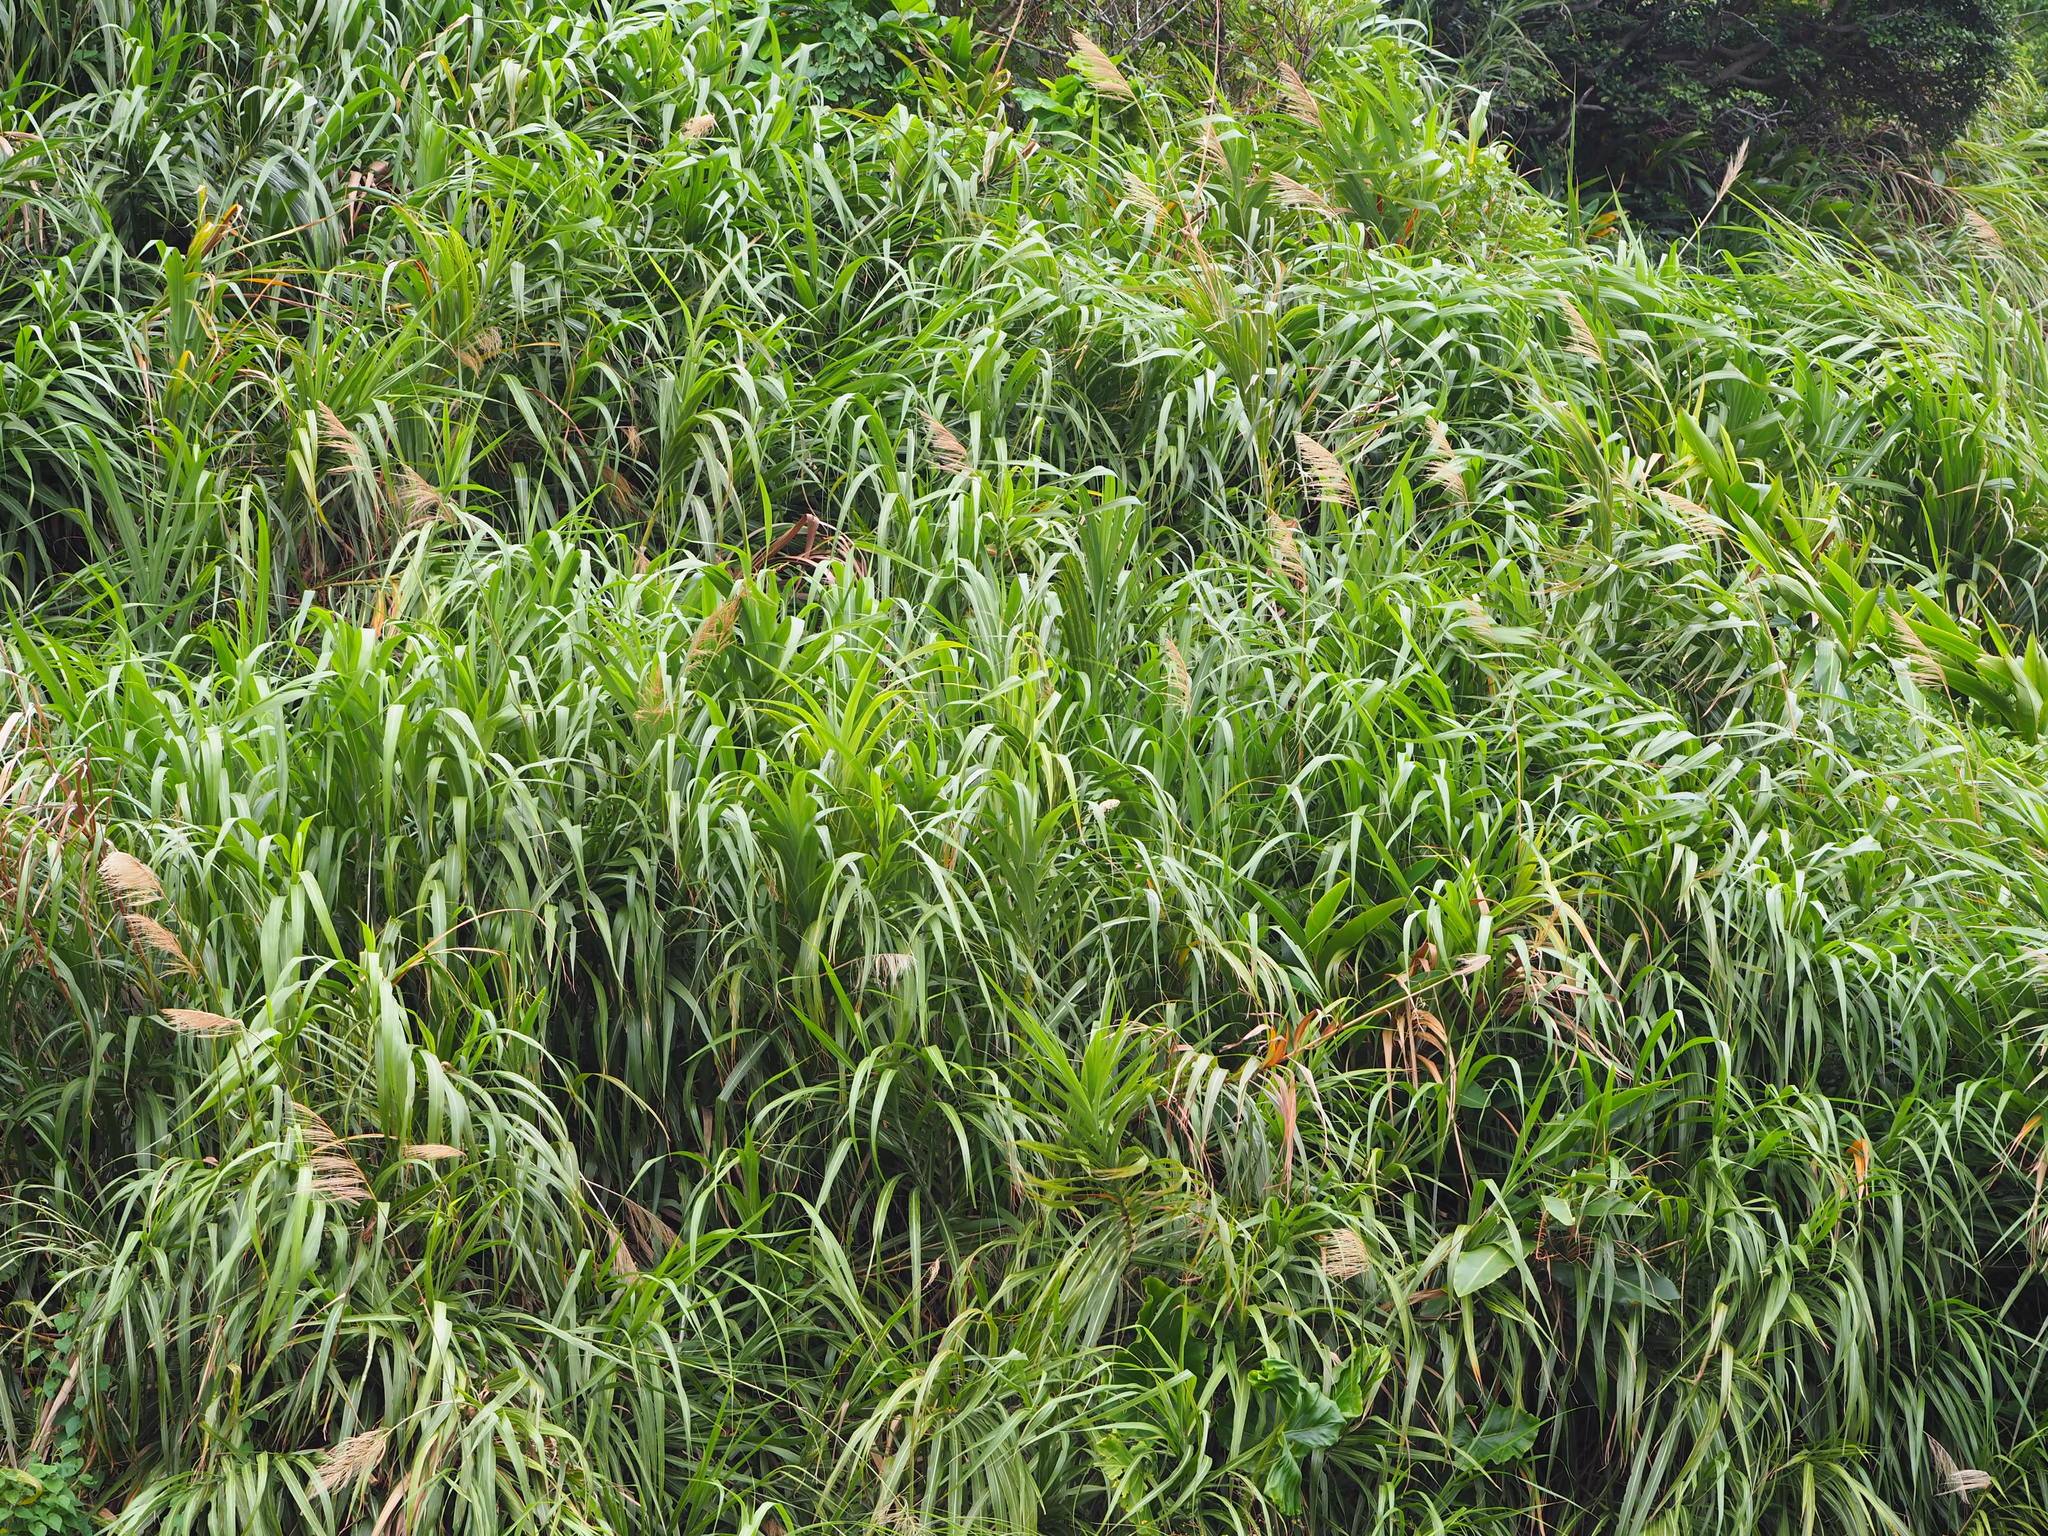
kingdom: Plantae
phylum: Tracheophyta
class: Liliopsida
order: Poales
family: Poaceae
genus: Miscanthus
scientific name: Miscanthus sinensis
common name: Chinese silvergrass
